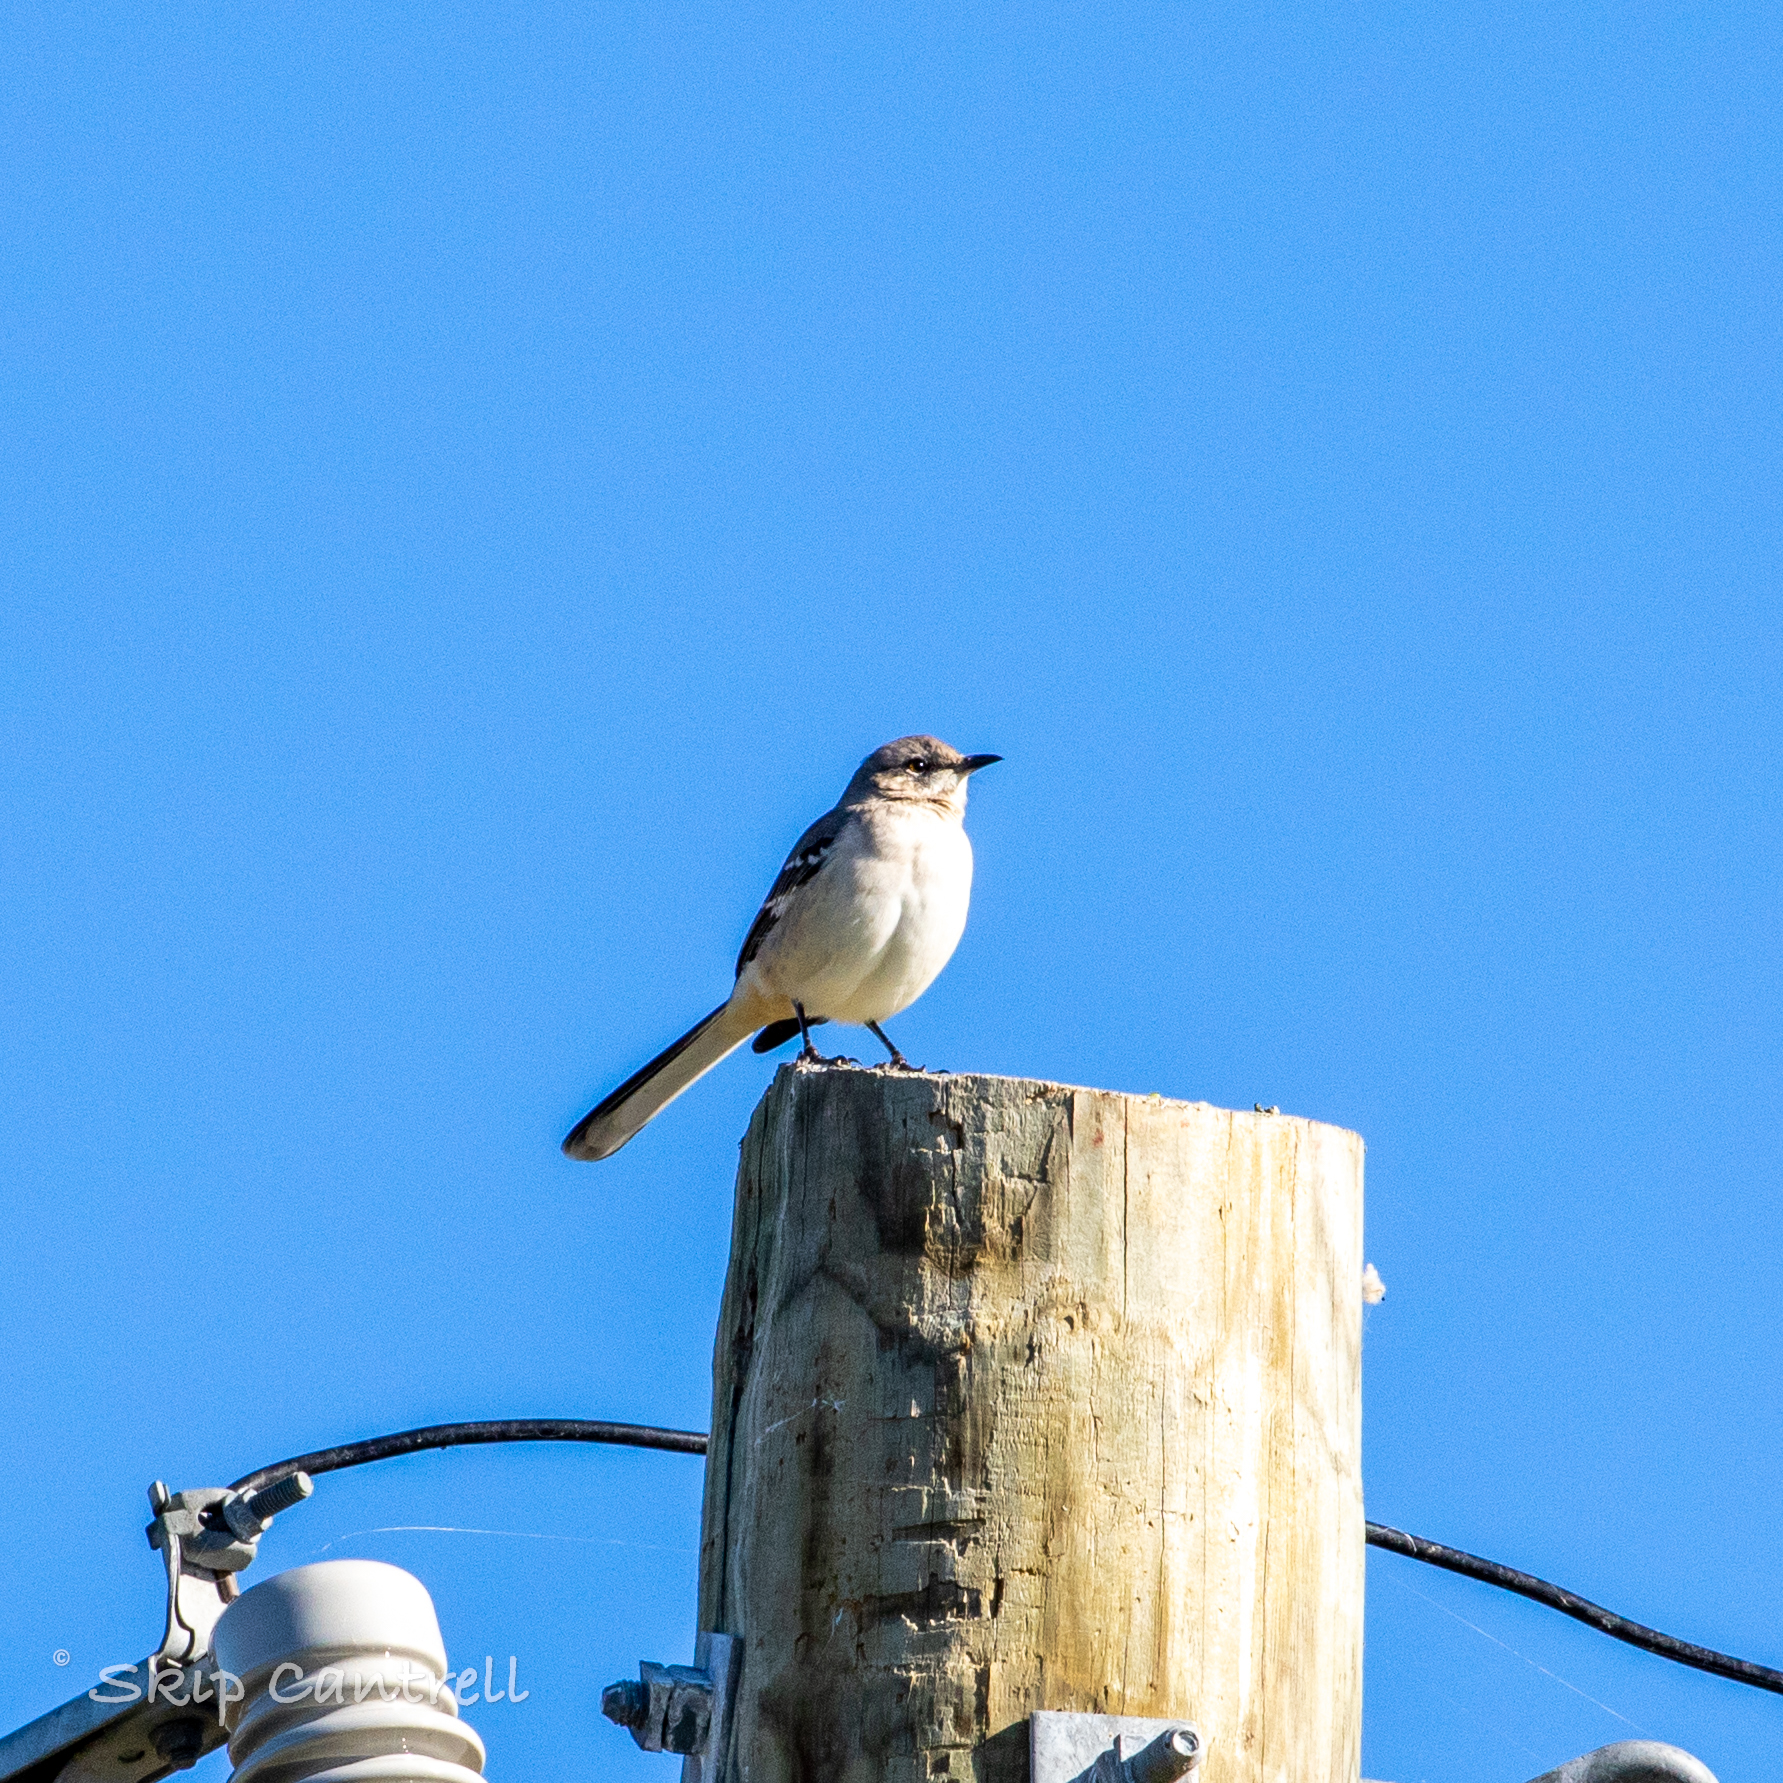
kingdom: Animalia
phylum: Chordata
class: Aves
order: Passeriformes
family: Mimidae
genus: Mimus
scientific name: Mimus polyglottos
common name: Northern mockingbird
